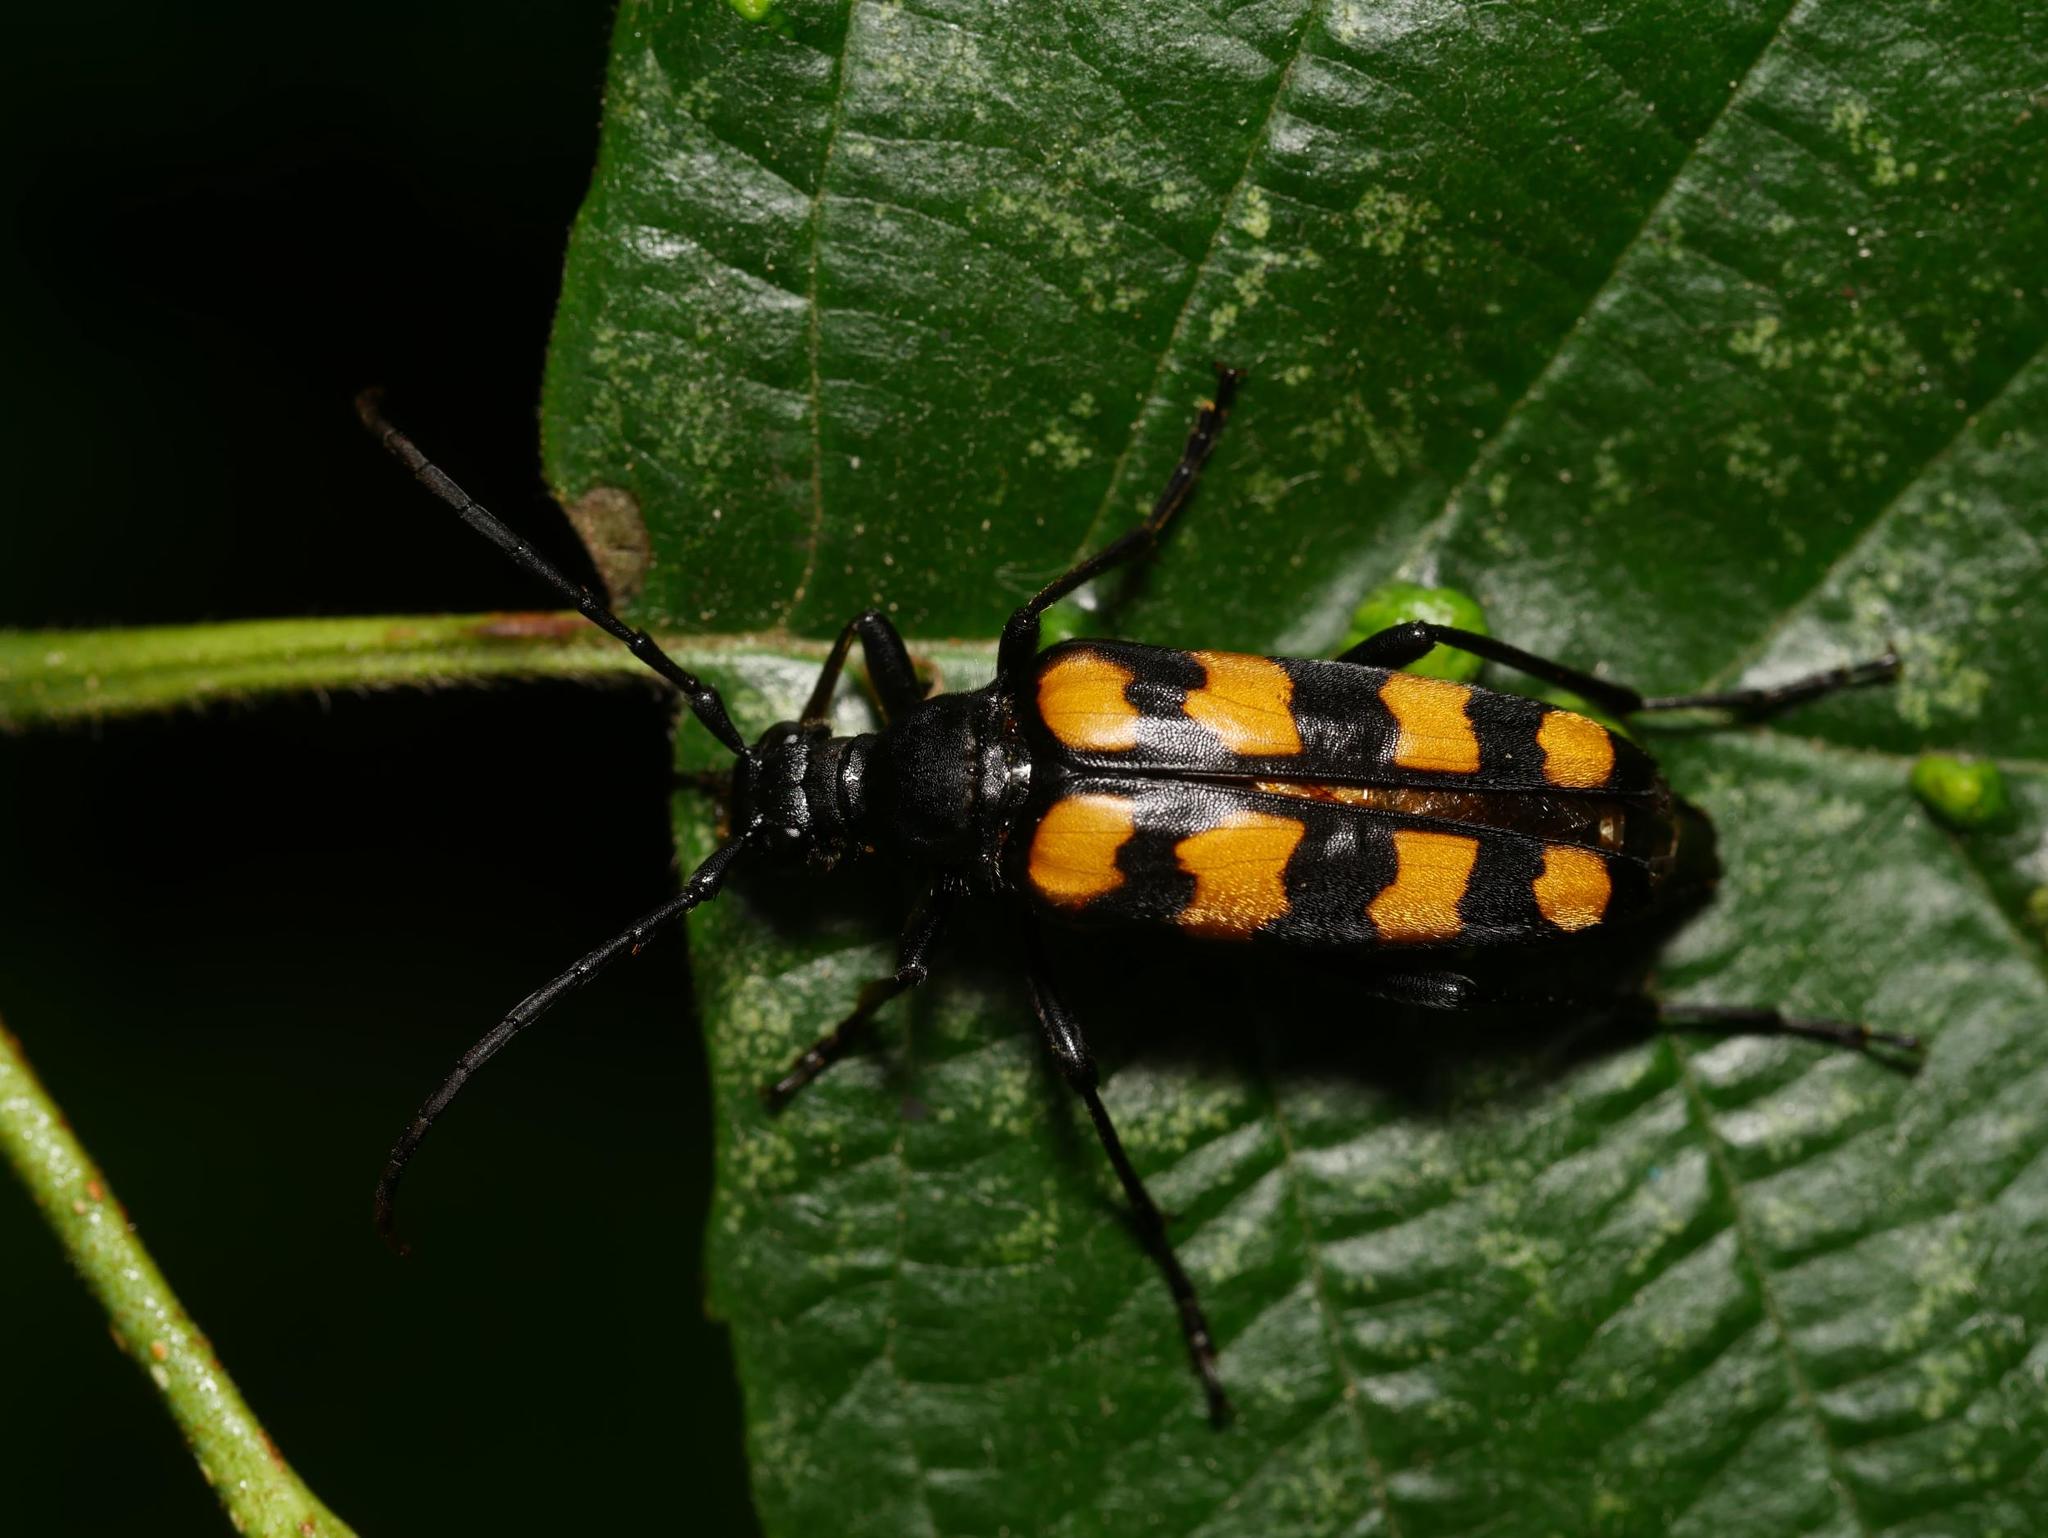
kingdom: Animalia
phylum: Arthropoda
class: Insecta
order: Coleoptera
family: Cerambycidae
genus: Leptura
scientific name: Leptura quadrifasciata
